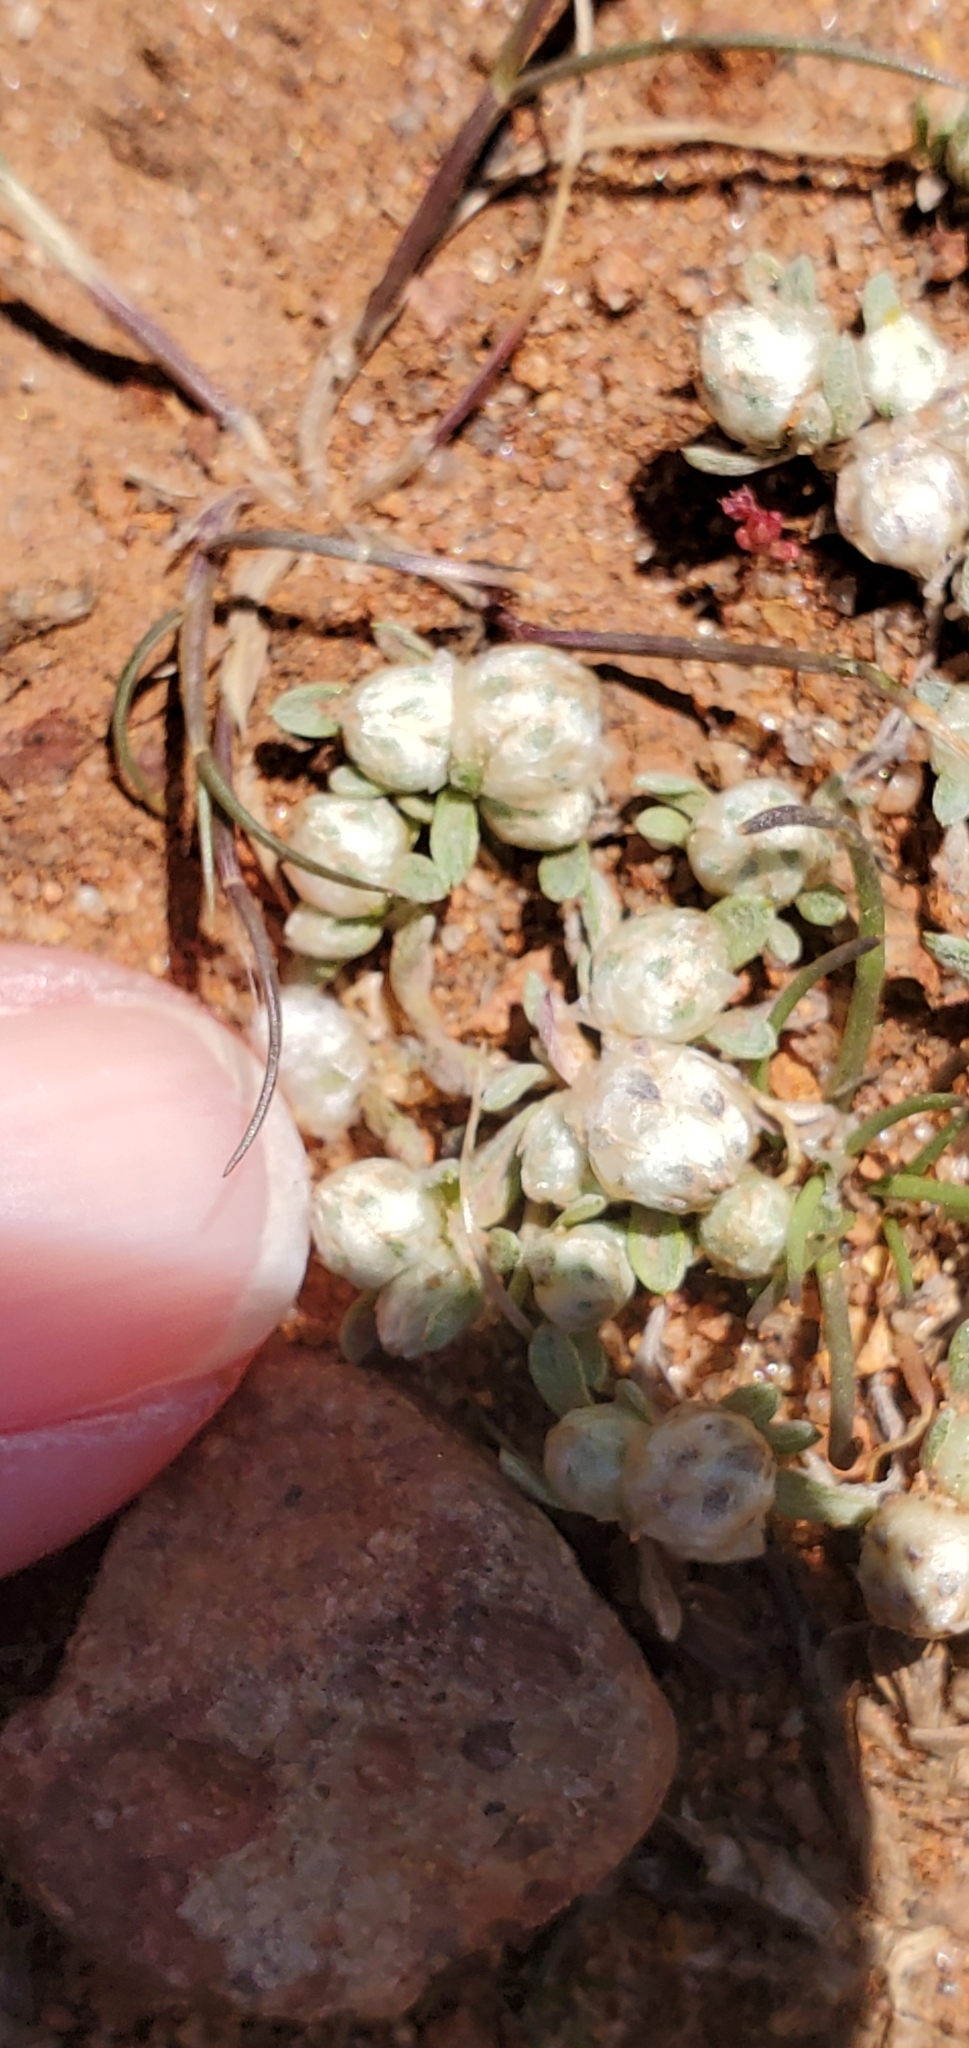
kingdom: Plantae
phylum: Tracheophyta
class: Magnoliopsida
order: Asterales
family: Asteraceae
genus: Stylocline
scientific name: Stylocline gnaphaloides
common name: Everlasting nest-straw
